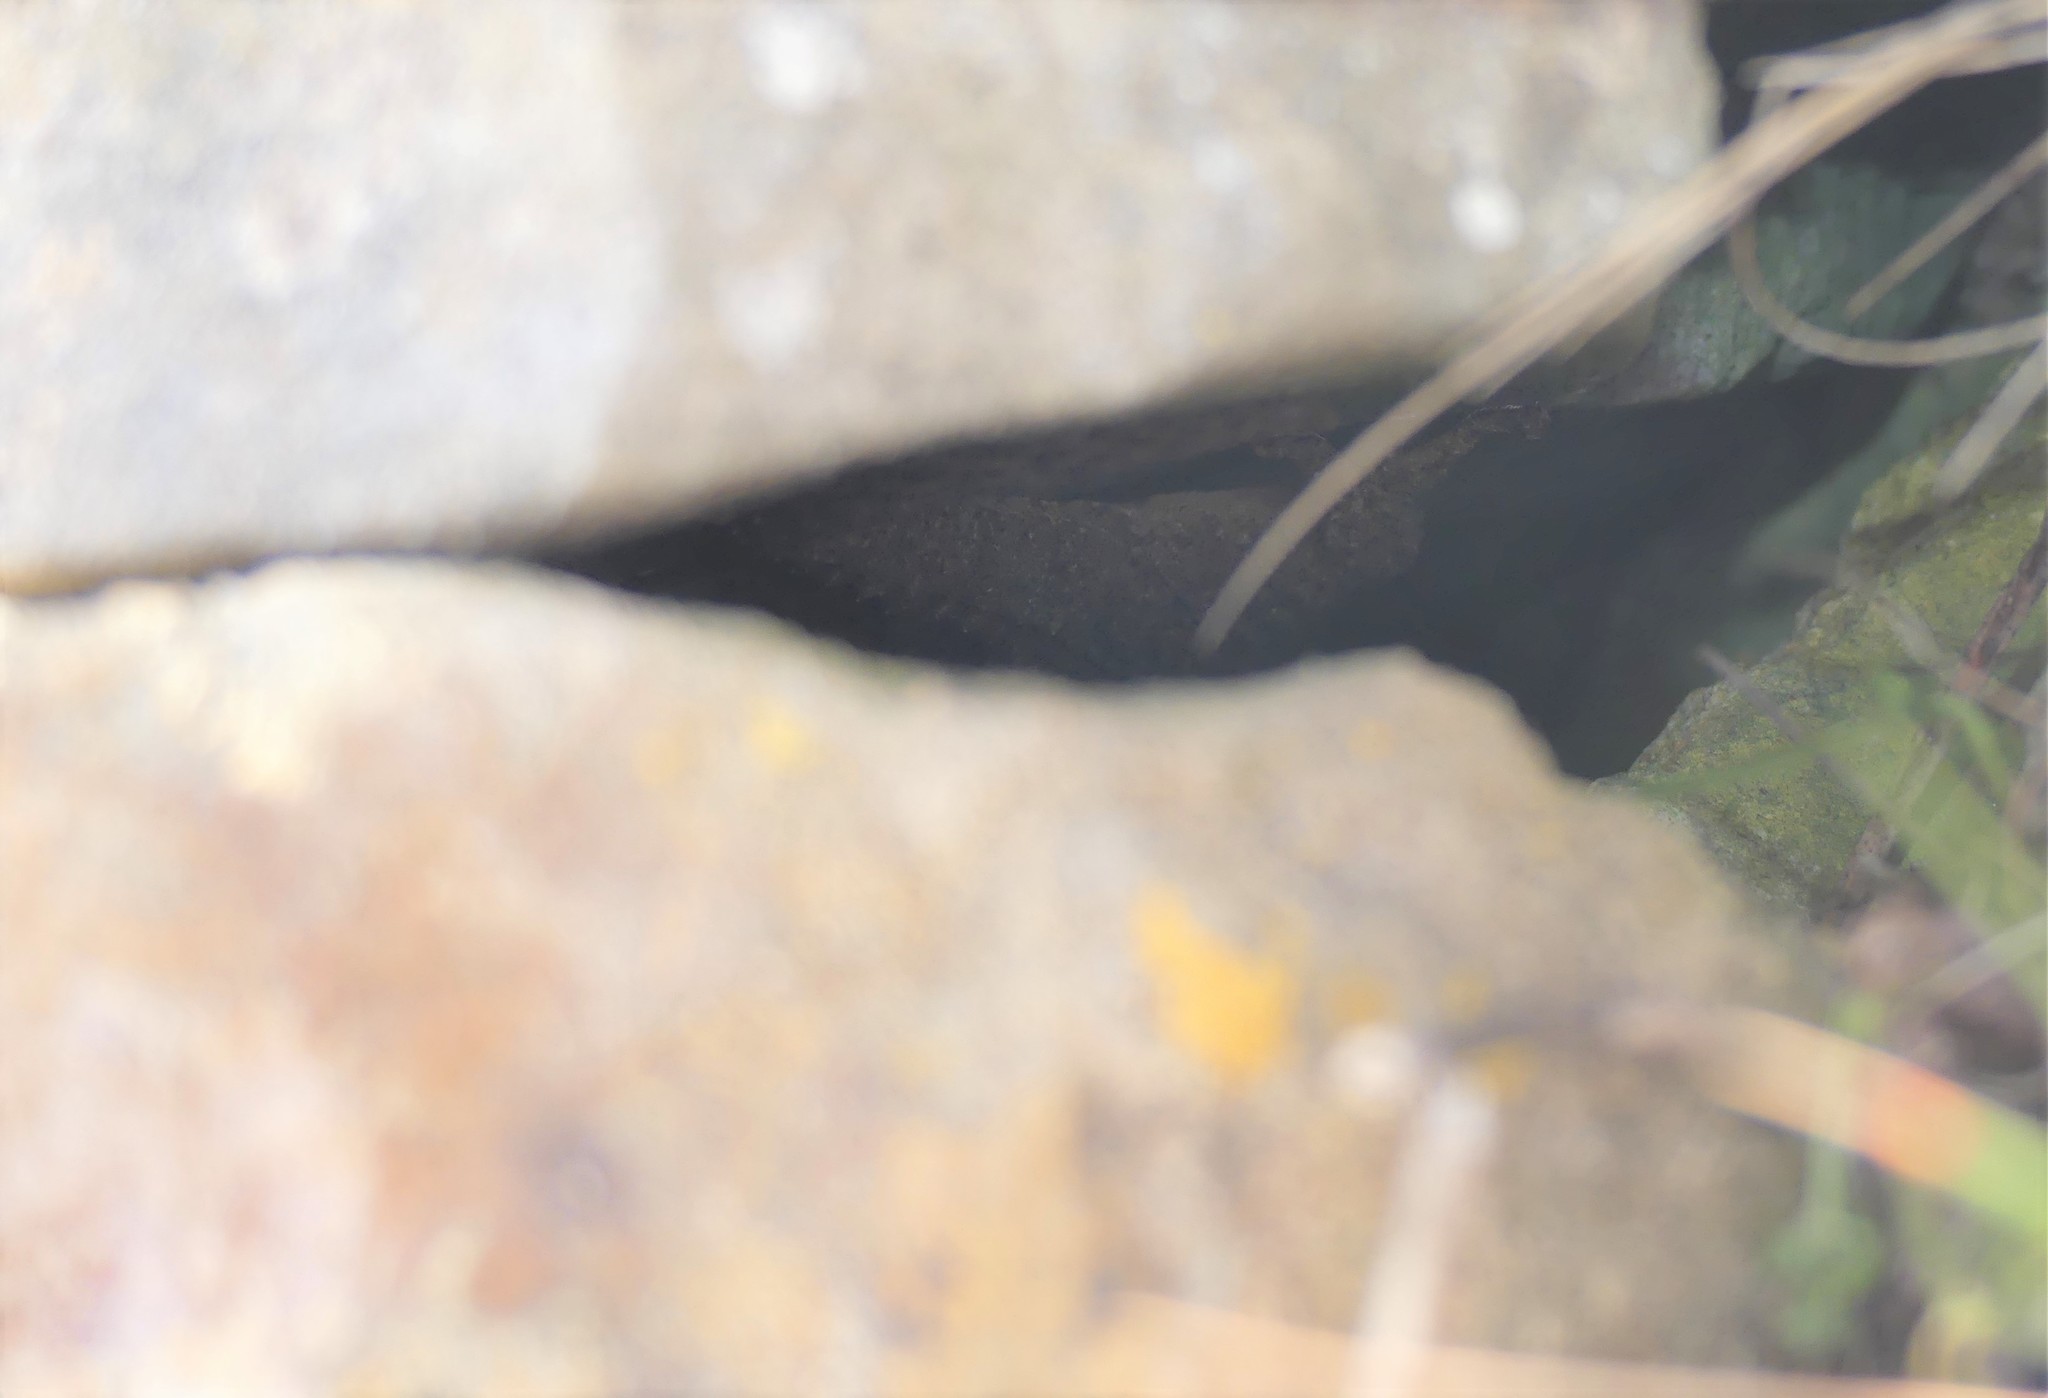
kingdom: Animalia
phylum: Chordata
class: Squamata
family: Phyllodactylidae
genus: Tarentola
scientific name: Tarentola mauritanica
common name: Moorish gecko
